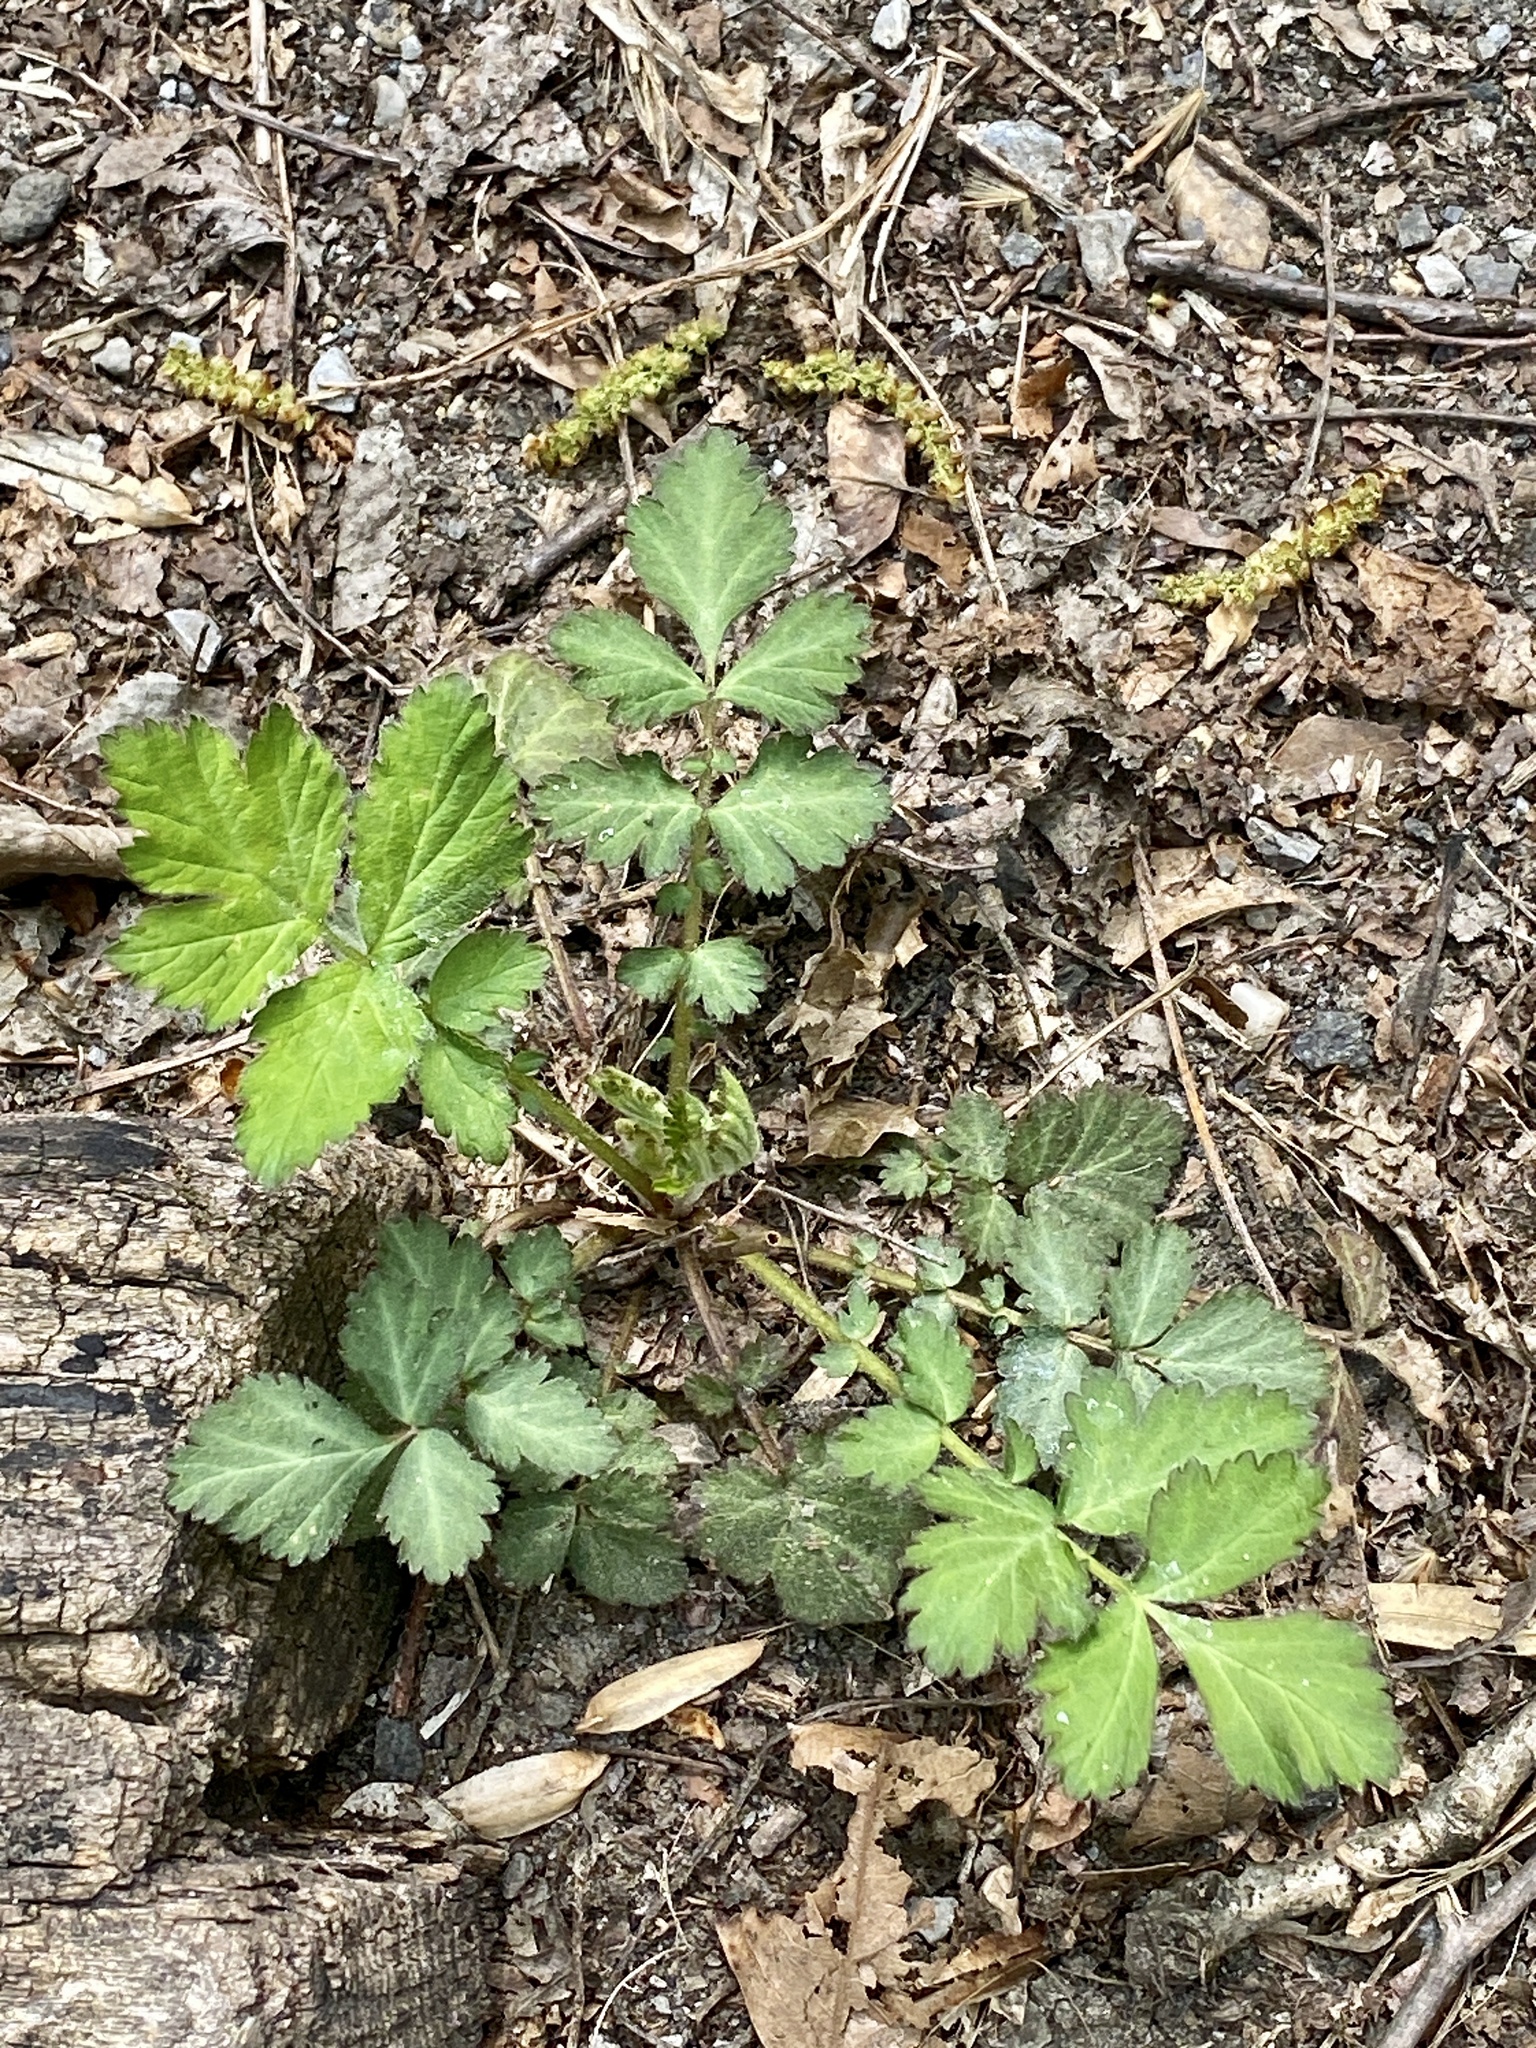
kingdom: Plantae
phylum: Tracheophyta
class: Magnoliopsida
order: Rosales
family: Rosaceae
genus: Geum
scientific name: Geum canadense
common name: White avens
